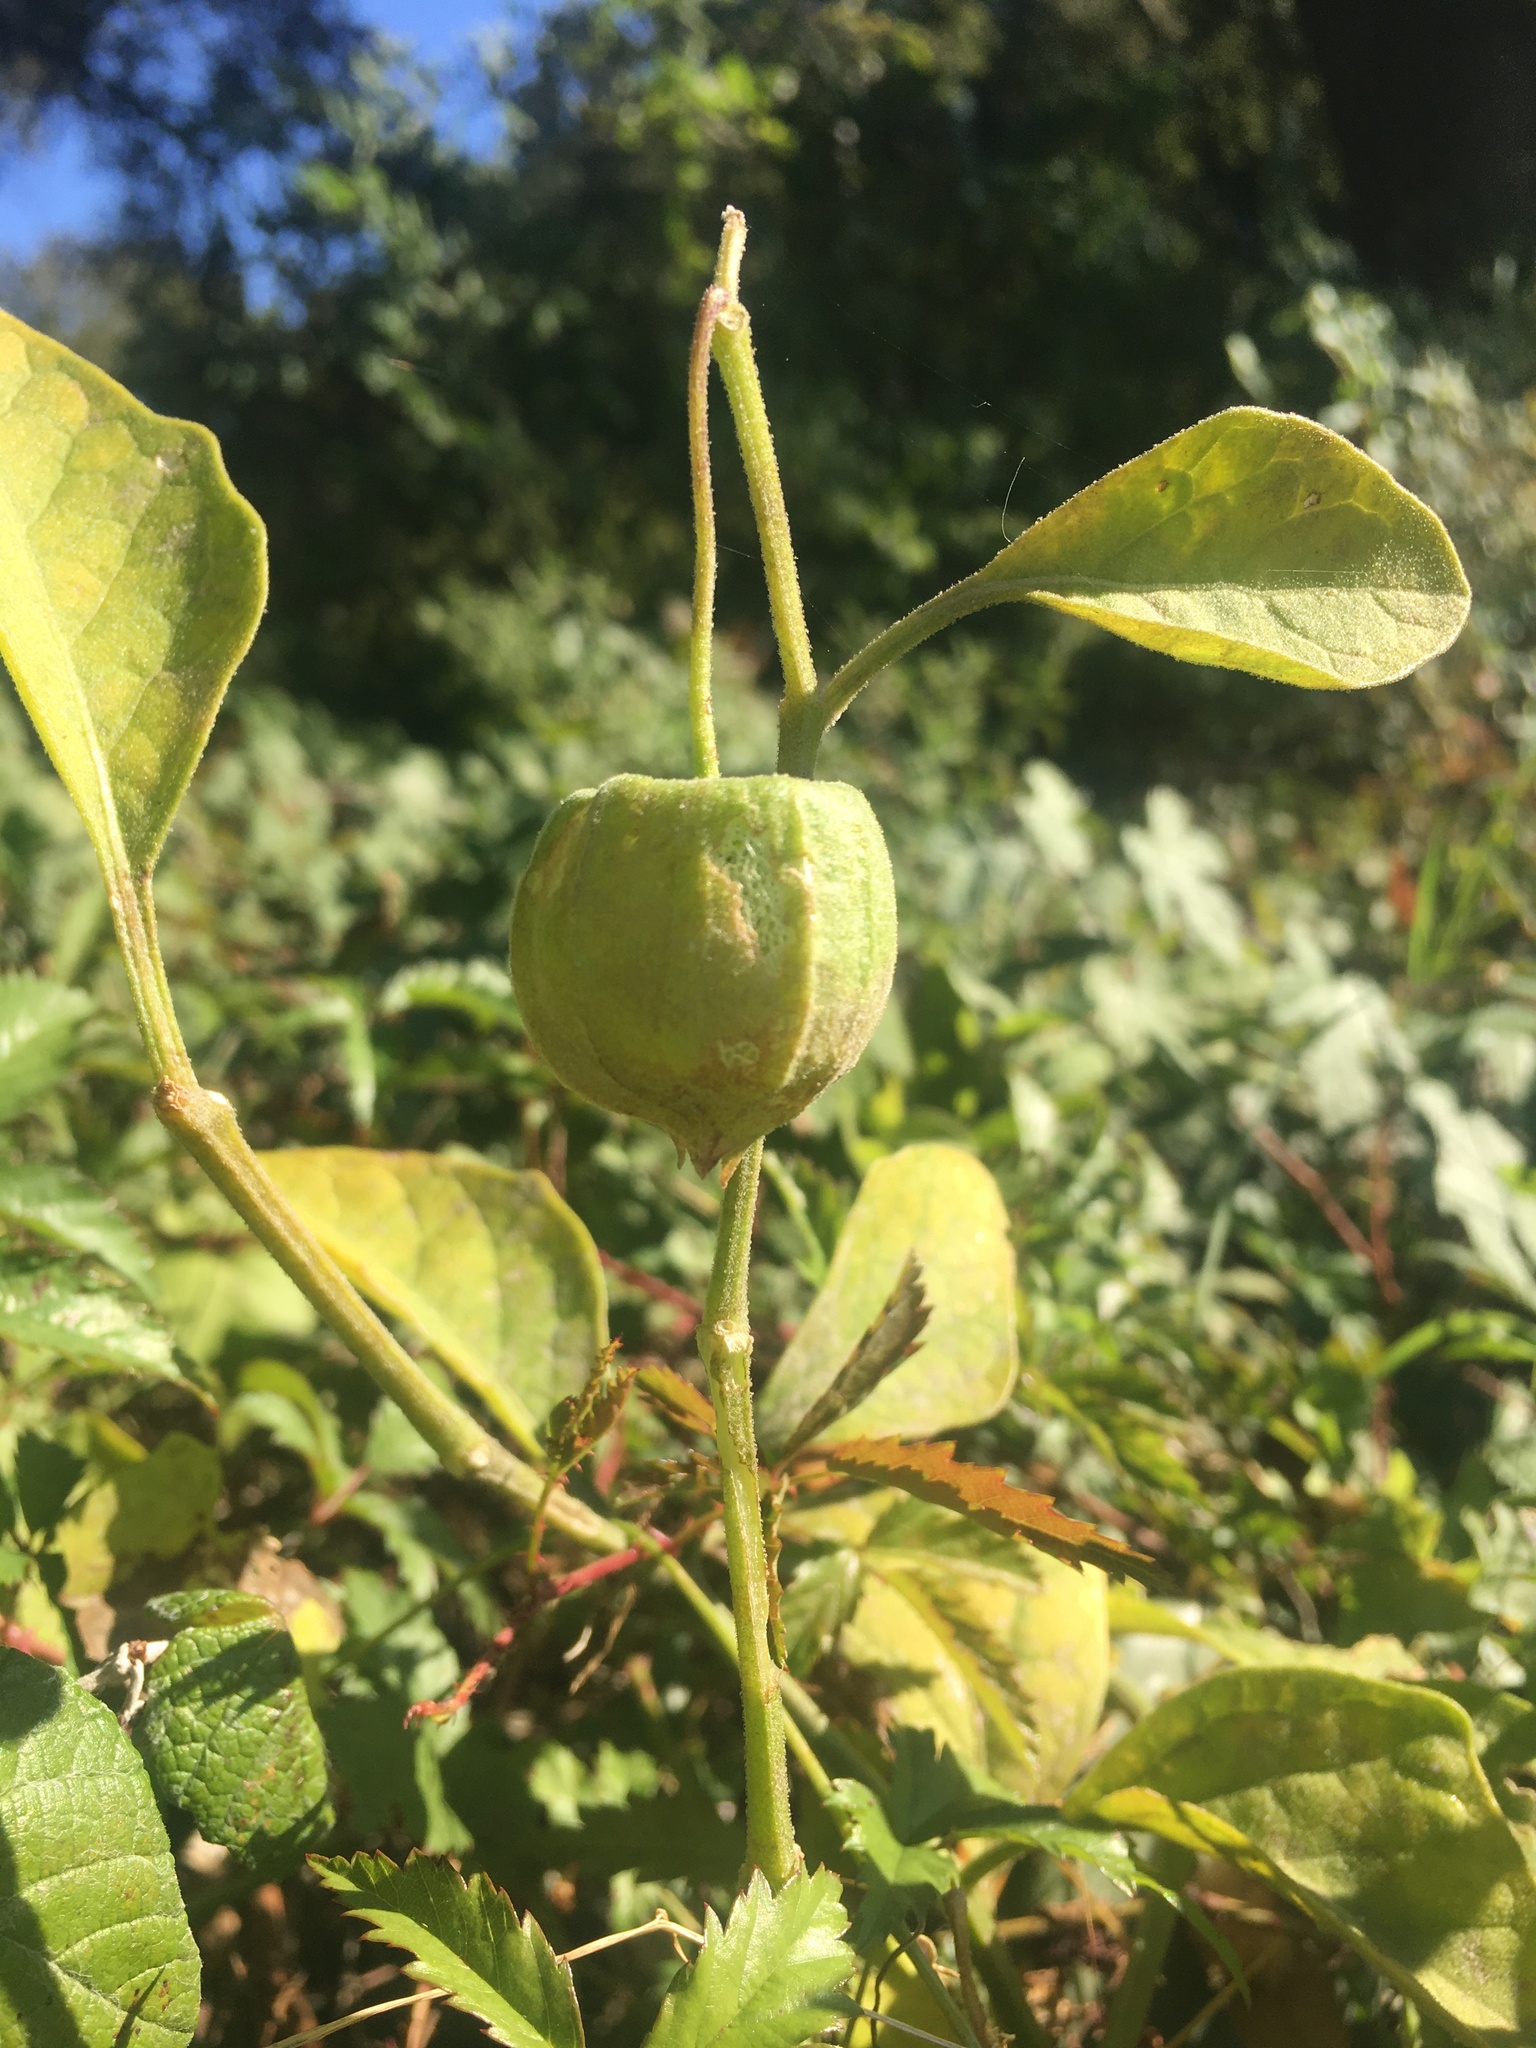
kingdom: Plantae
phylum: Tracheophyta
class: Magnoliopsida
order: Solanales
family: Solanaceae
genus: Physalis
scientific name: Physalis cinerascens
